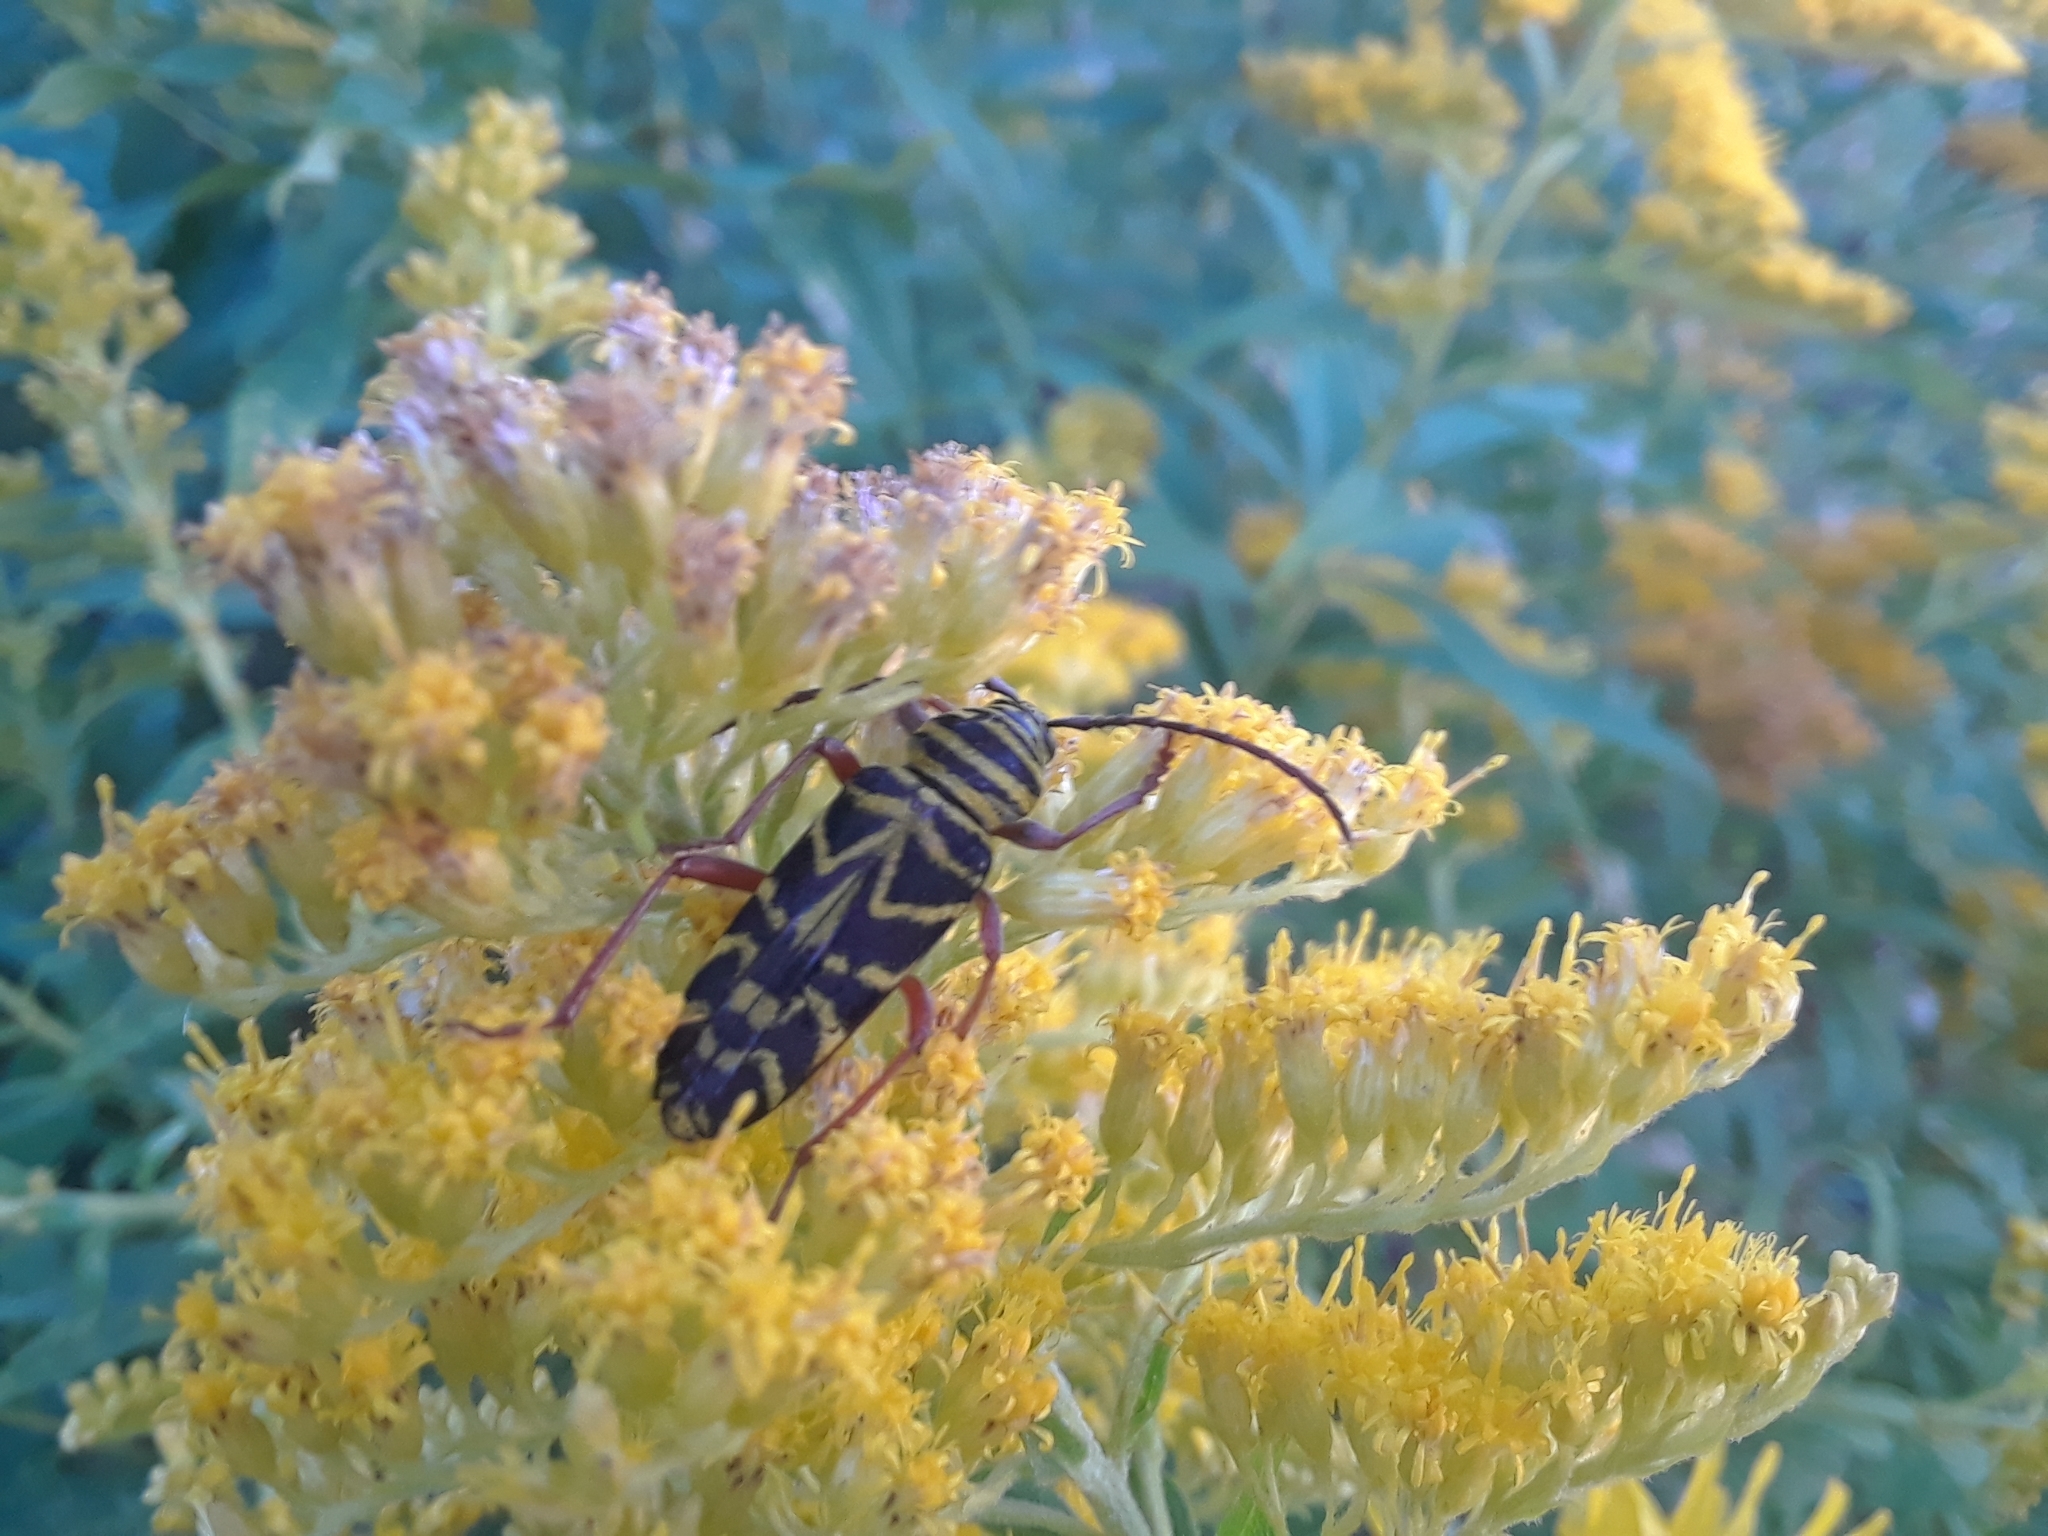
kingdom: Animalia
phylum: Arthropoda
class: Insecta
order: Coleoptera
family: Cerambycidae
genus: Megacyllene
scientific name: Megacyllene robiniae
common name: Locust borer
